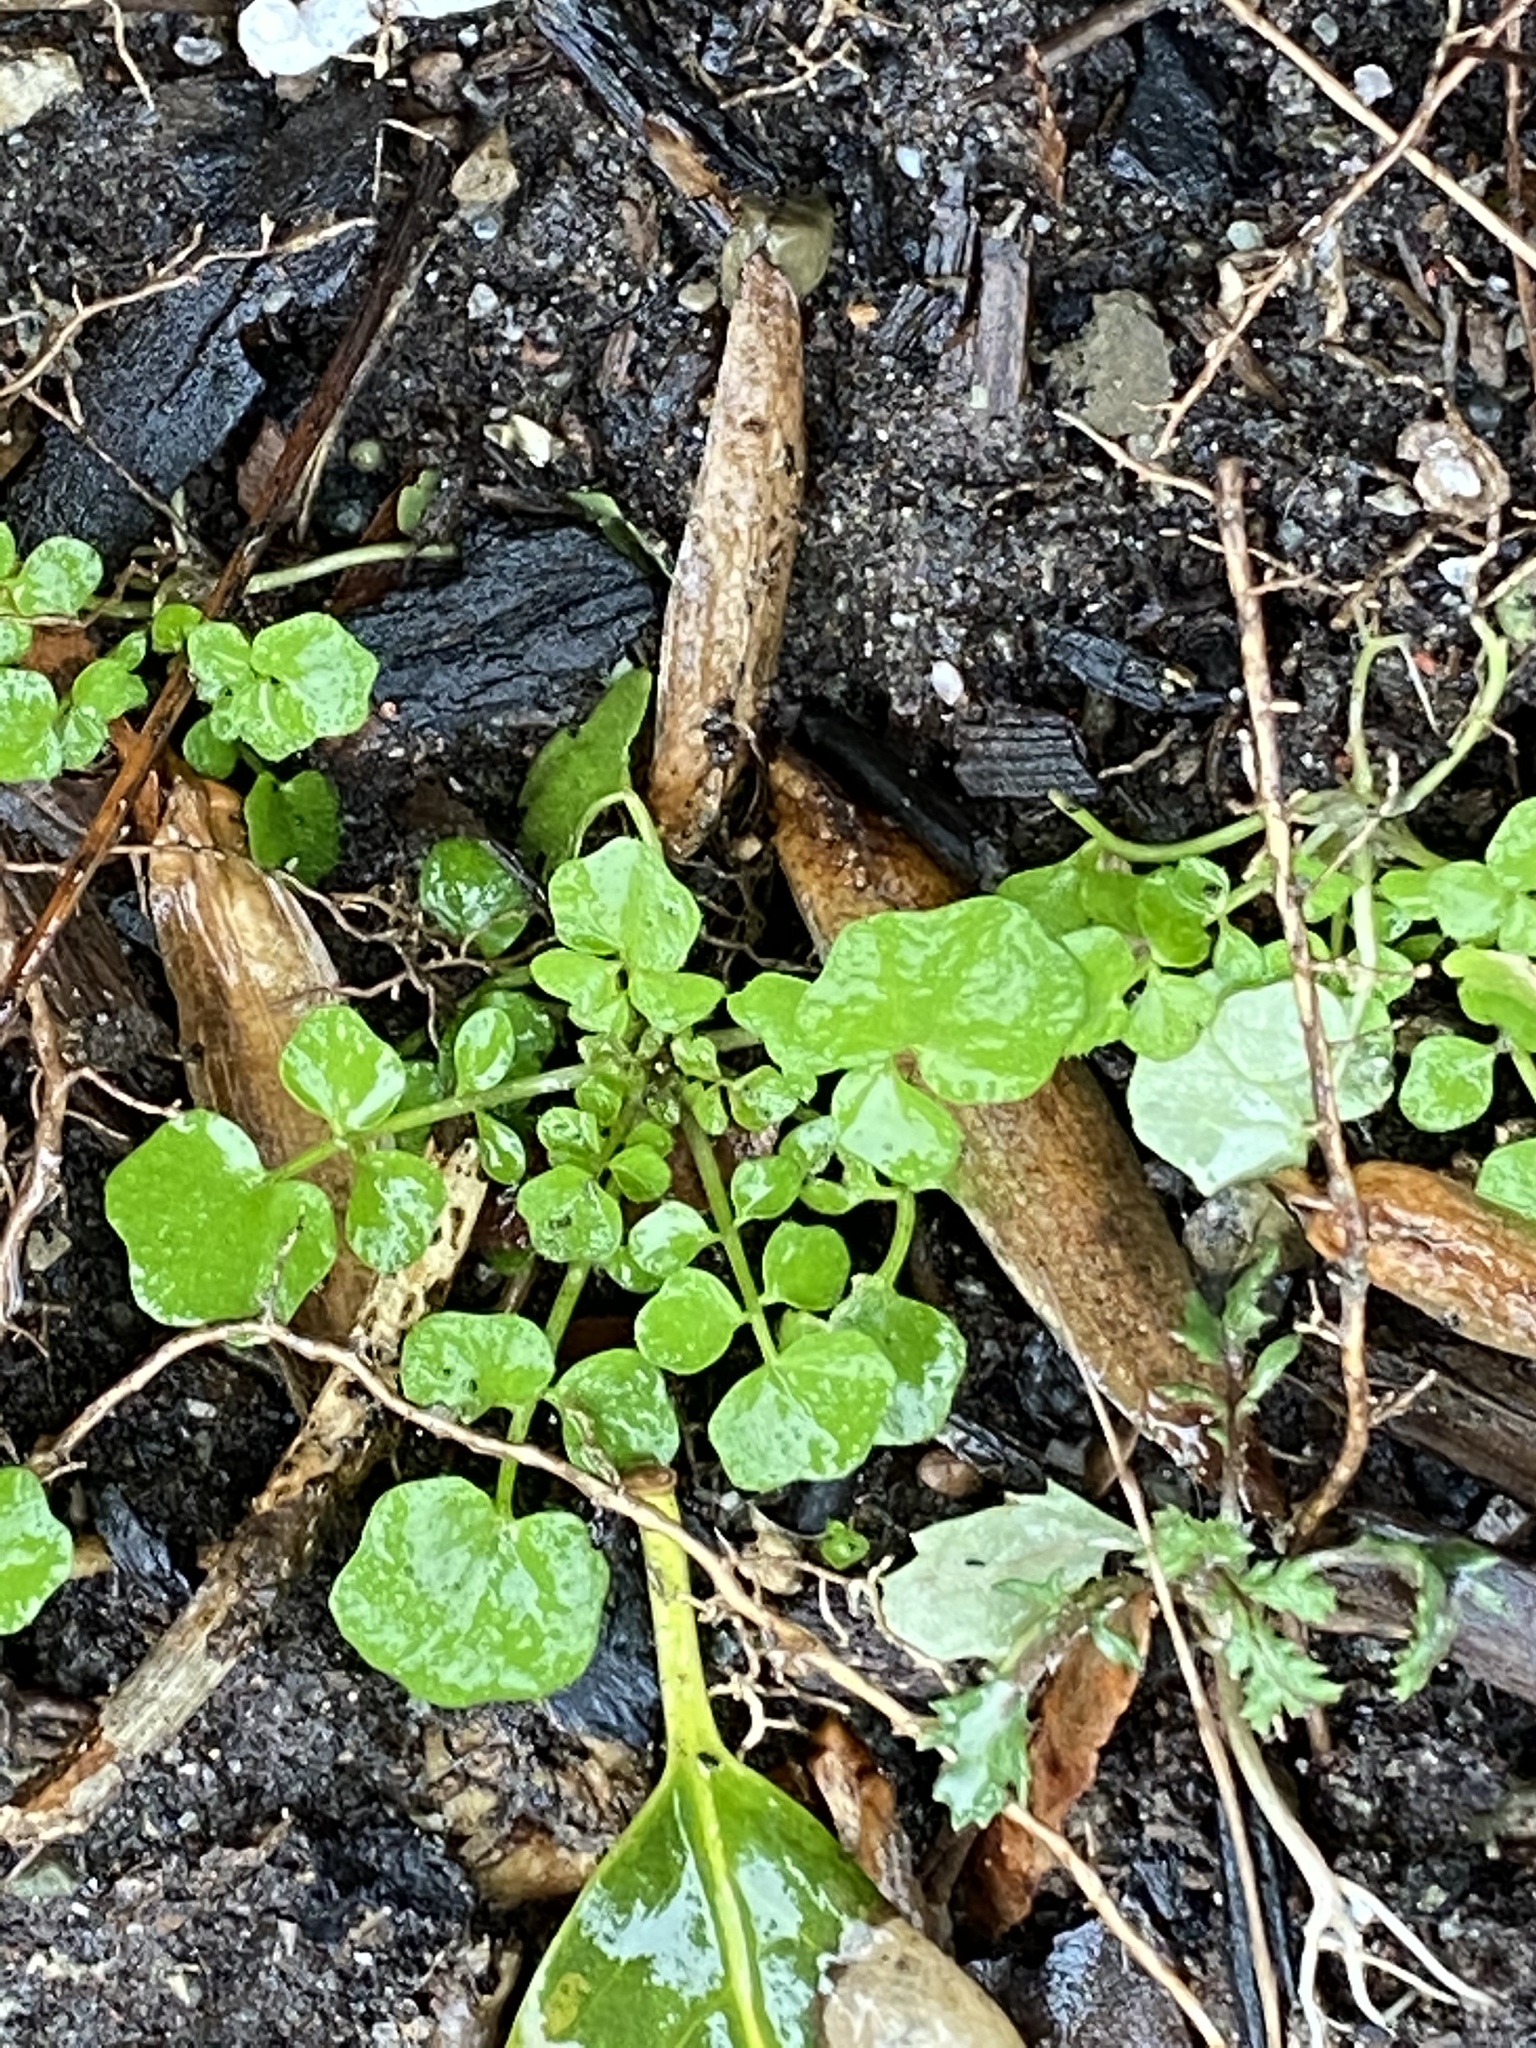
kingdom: Plantae
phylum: Tracheophyta
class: Magnoliopsida
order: Brassicales
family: Brassicaceae
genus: Cardamine
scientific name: Cardamine hirsuta
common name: Hairy bittercress
